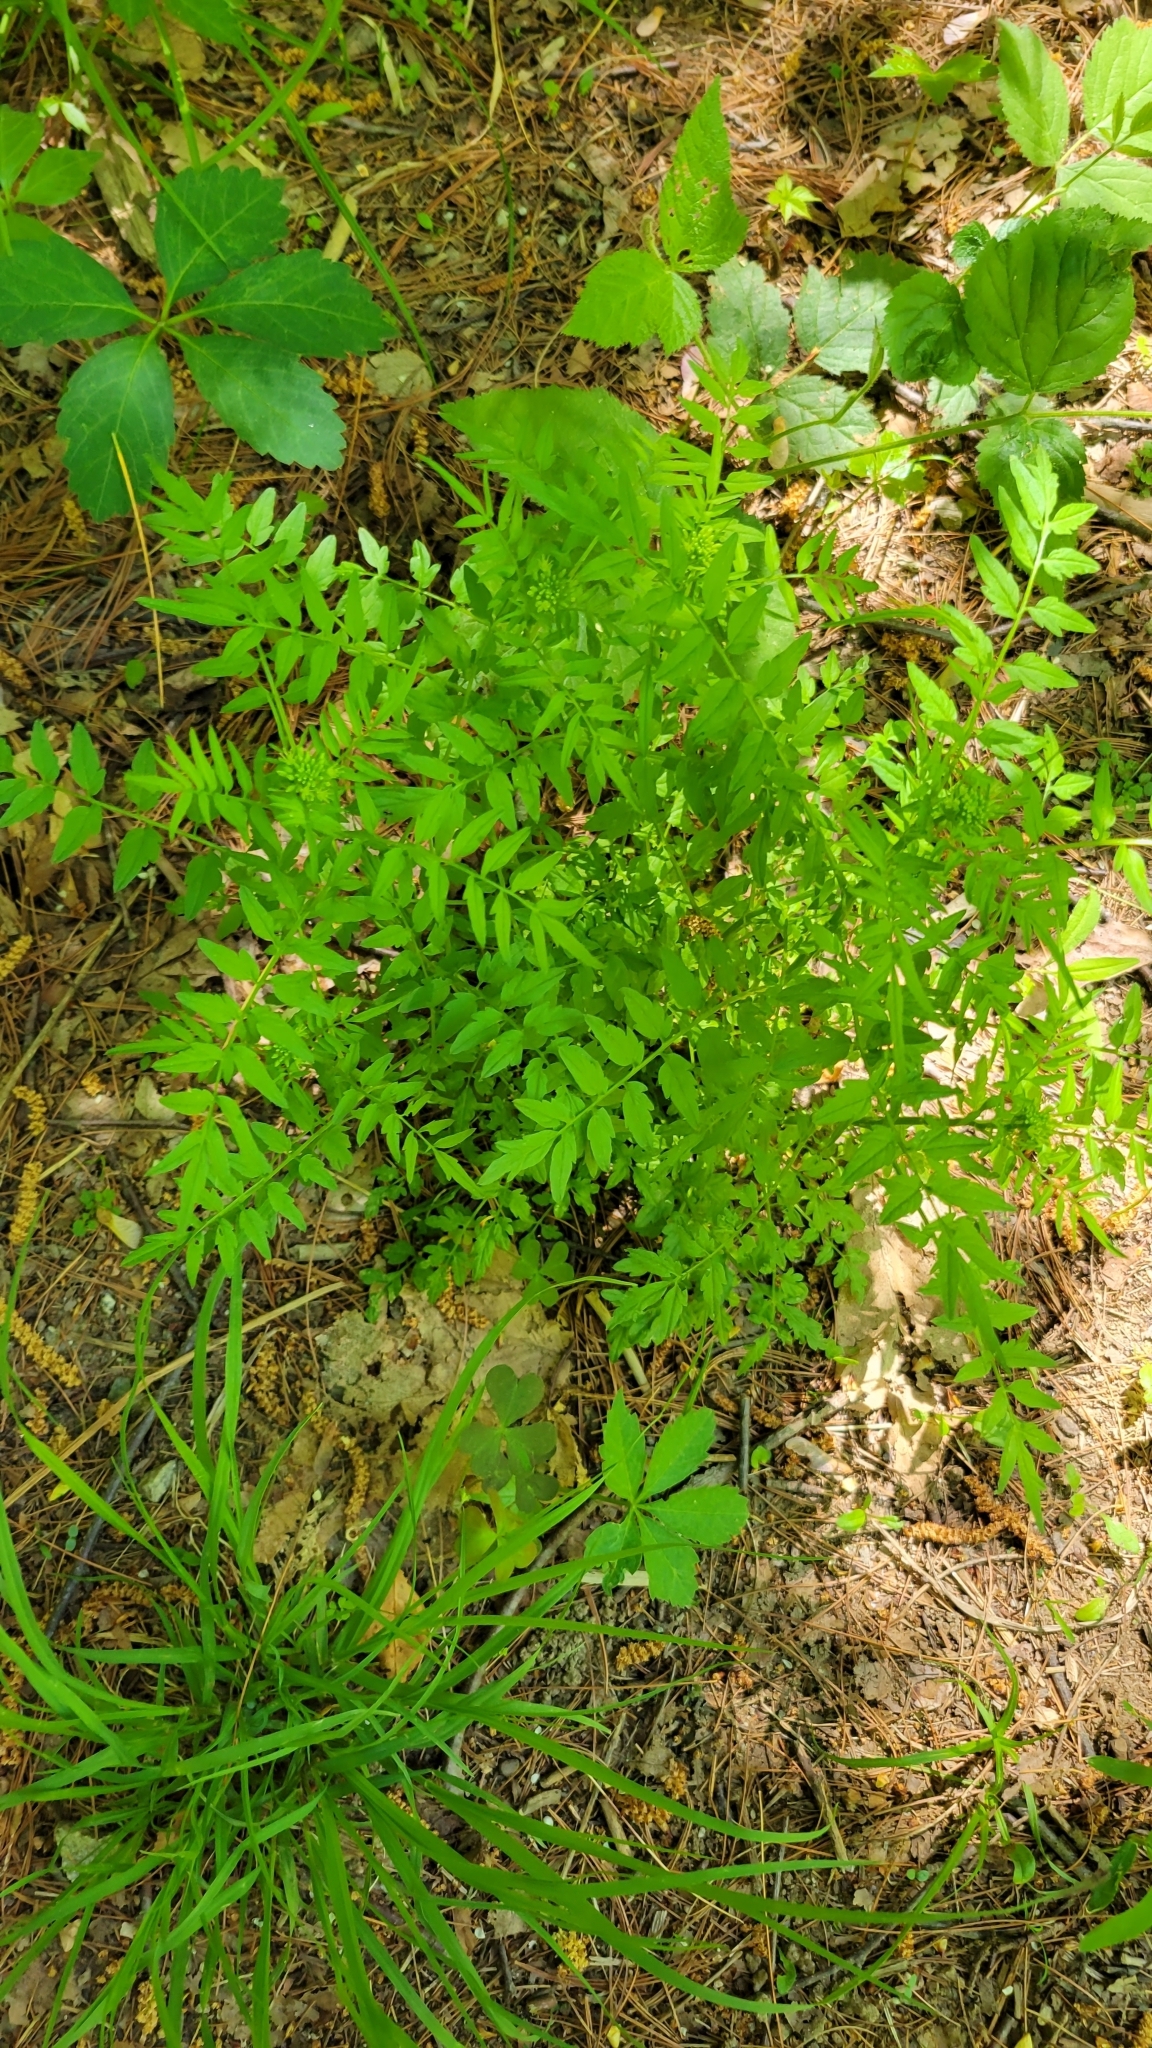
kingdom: Plantae
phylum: Tracheophyta
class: Magnoliopsida
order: Brassicales
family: Brassicaceae
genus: Cardamine
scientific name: Cardamine impatiens
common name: Narrow-leaved bitter-cress
